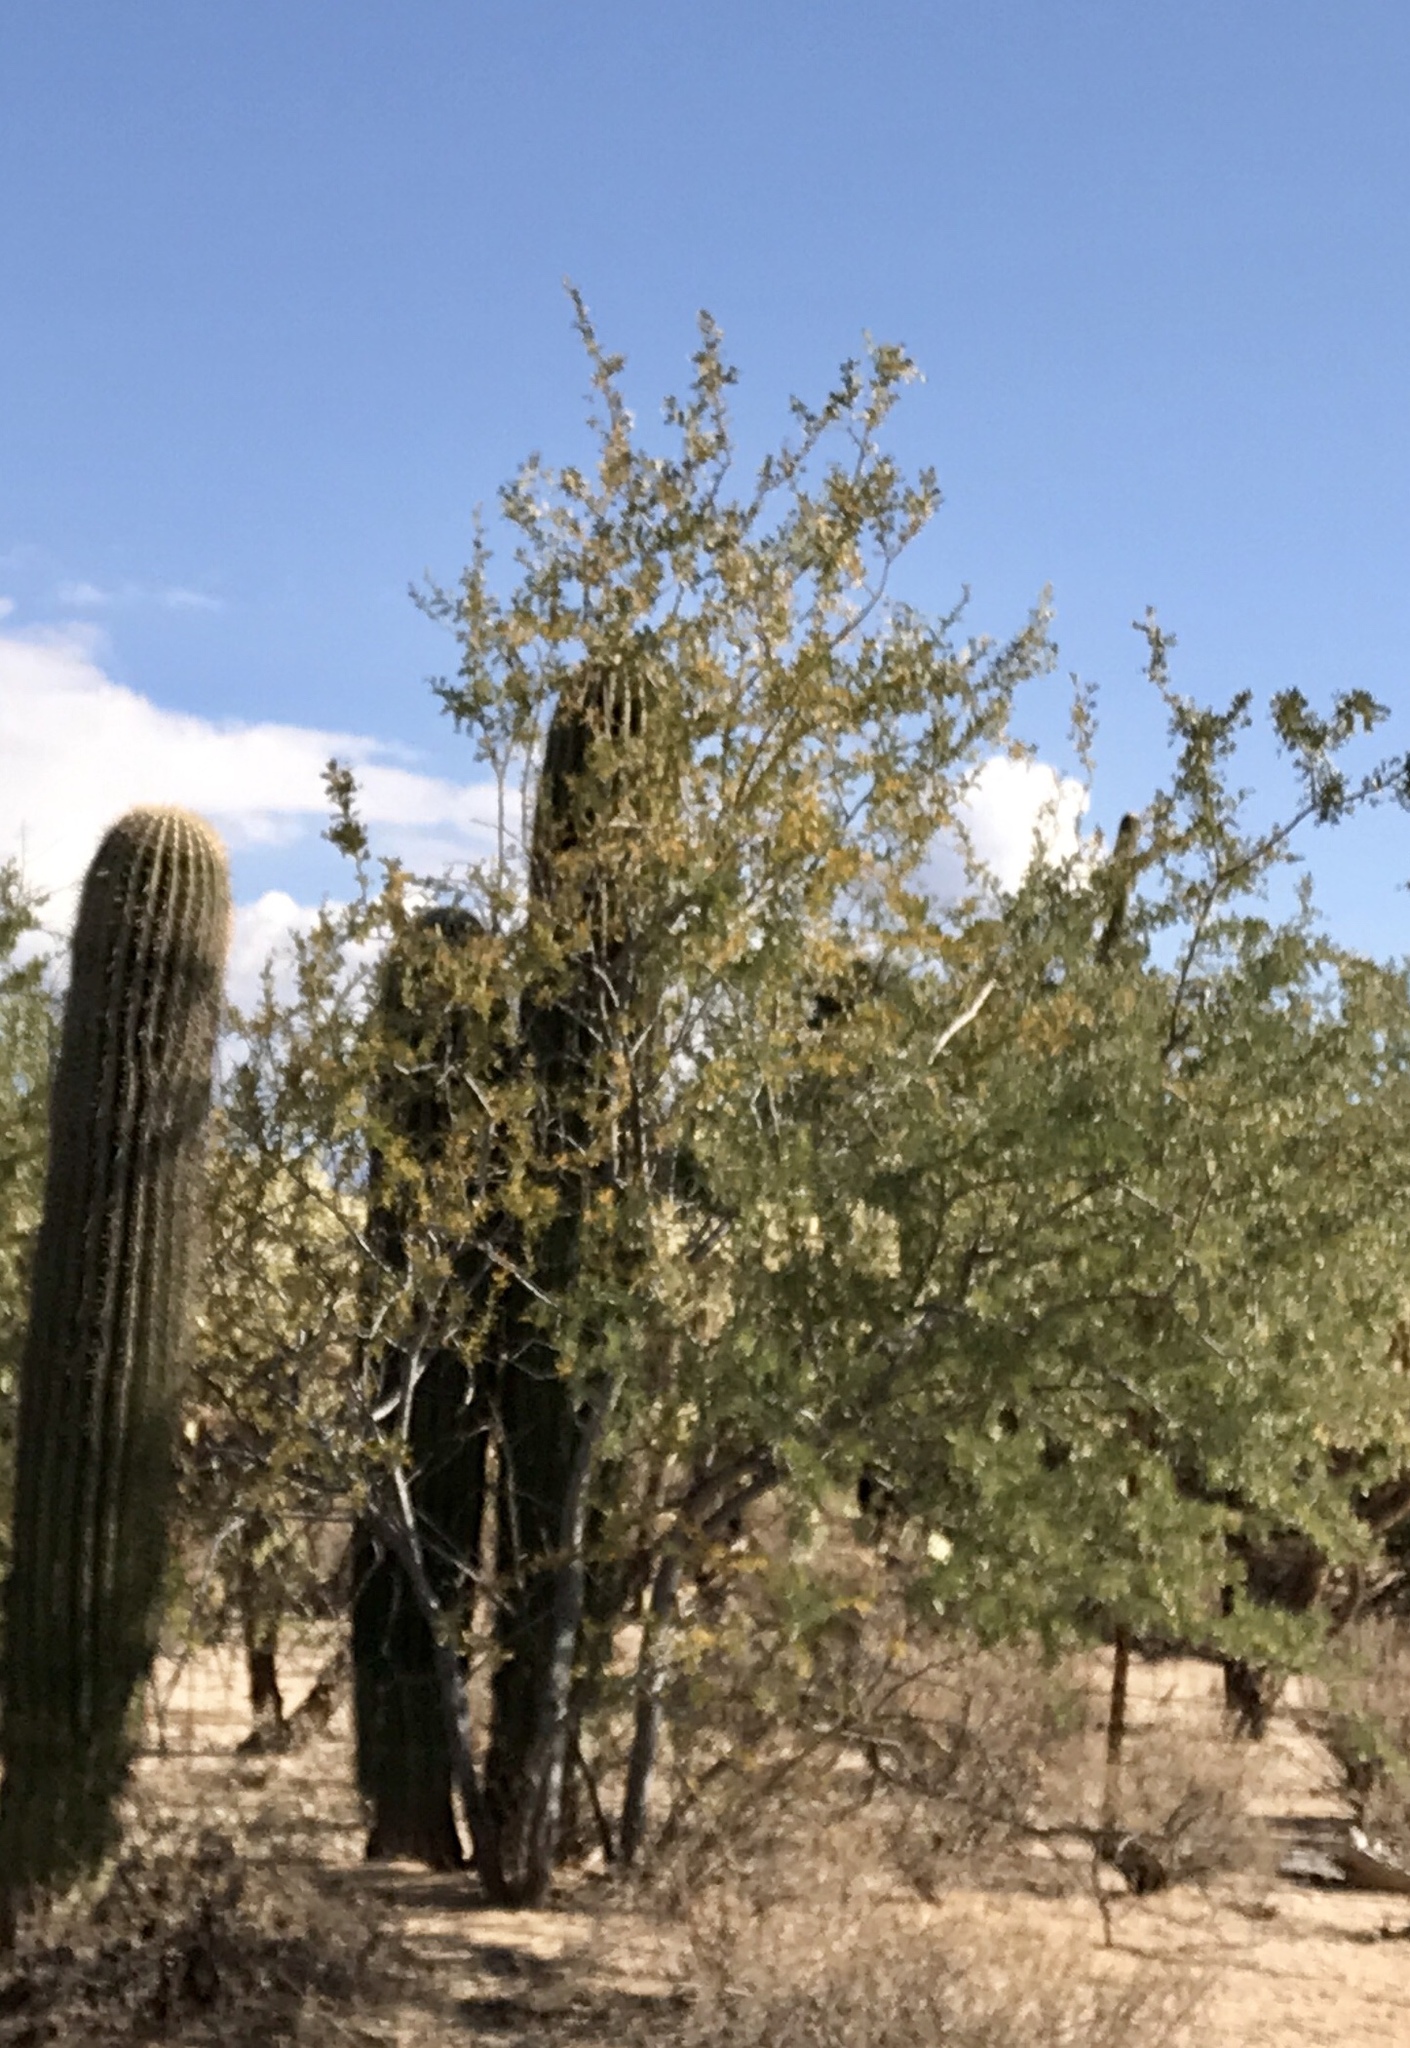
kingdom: Plantae
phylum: Tracheophyta
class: Magnoliopsida
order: Fabales
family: Fabaceae
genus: Olneya
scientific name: Olneya tesota
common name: Desert ironwood
